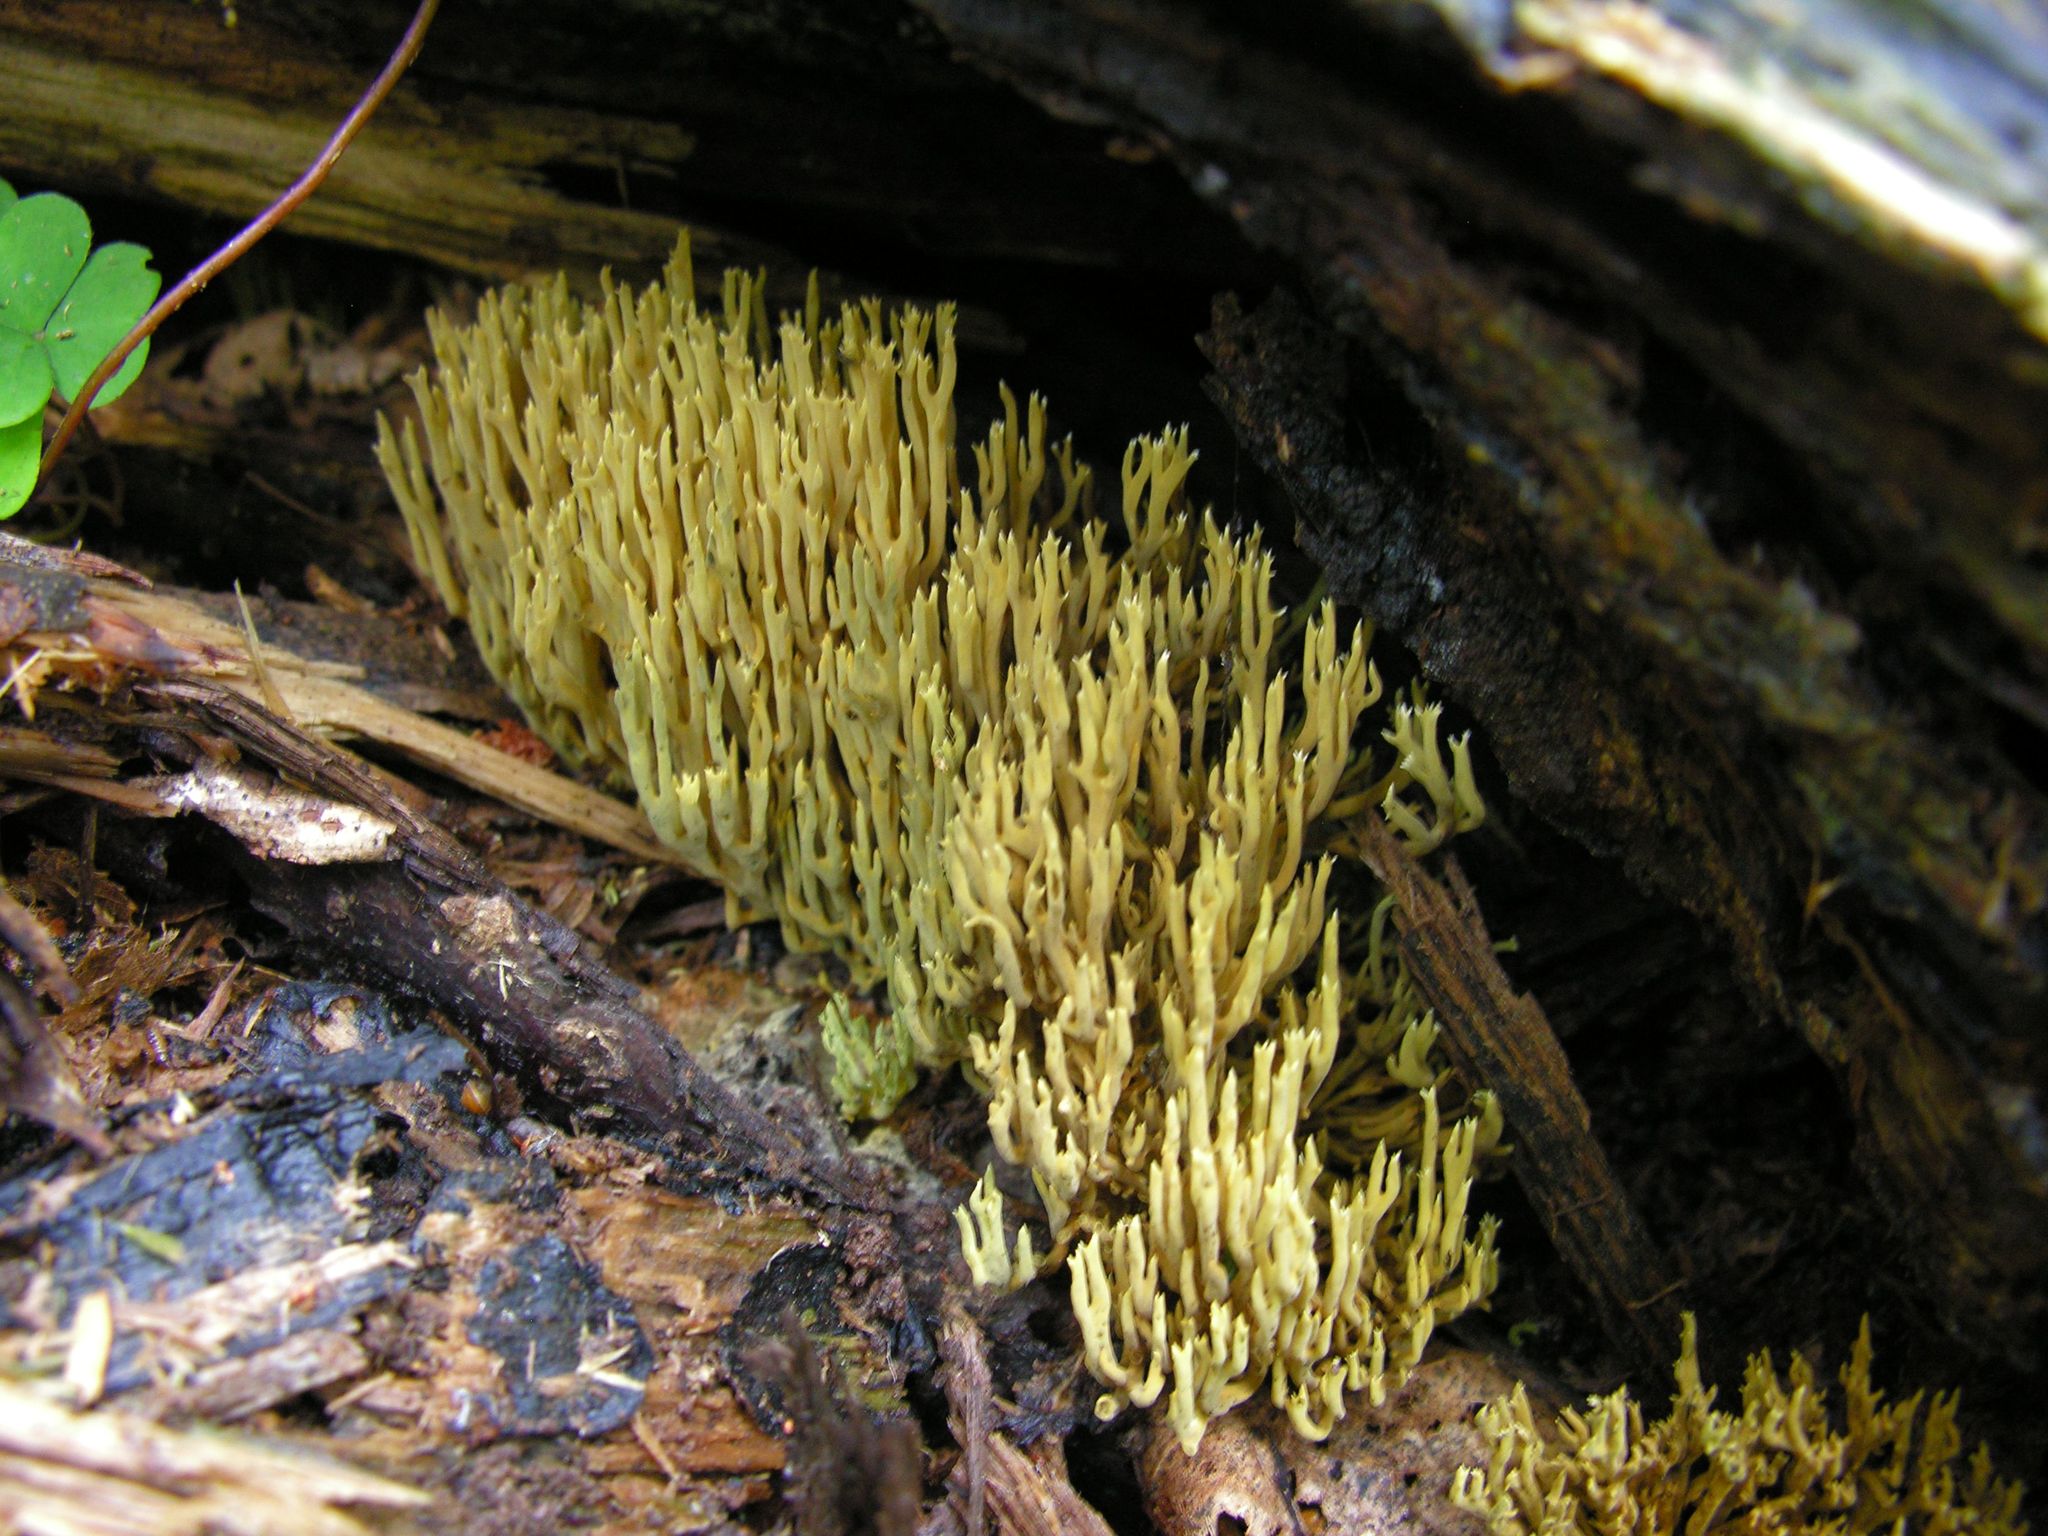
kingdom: Fungi
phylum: Basidiomycota
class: Agaricomycetes
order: Gomphales
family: Gomphaceae
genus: Phaeoclavulina
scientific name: Phaeoclavulina
